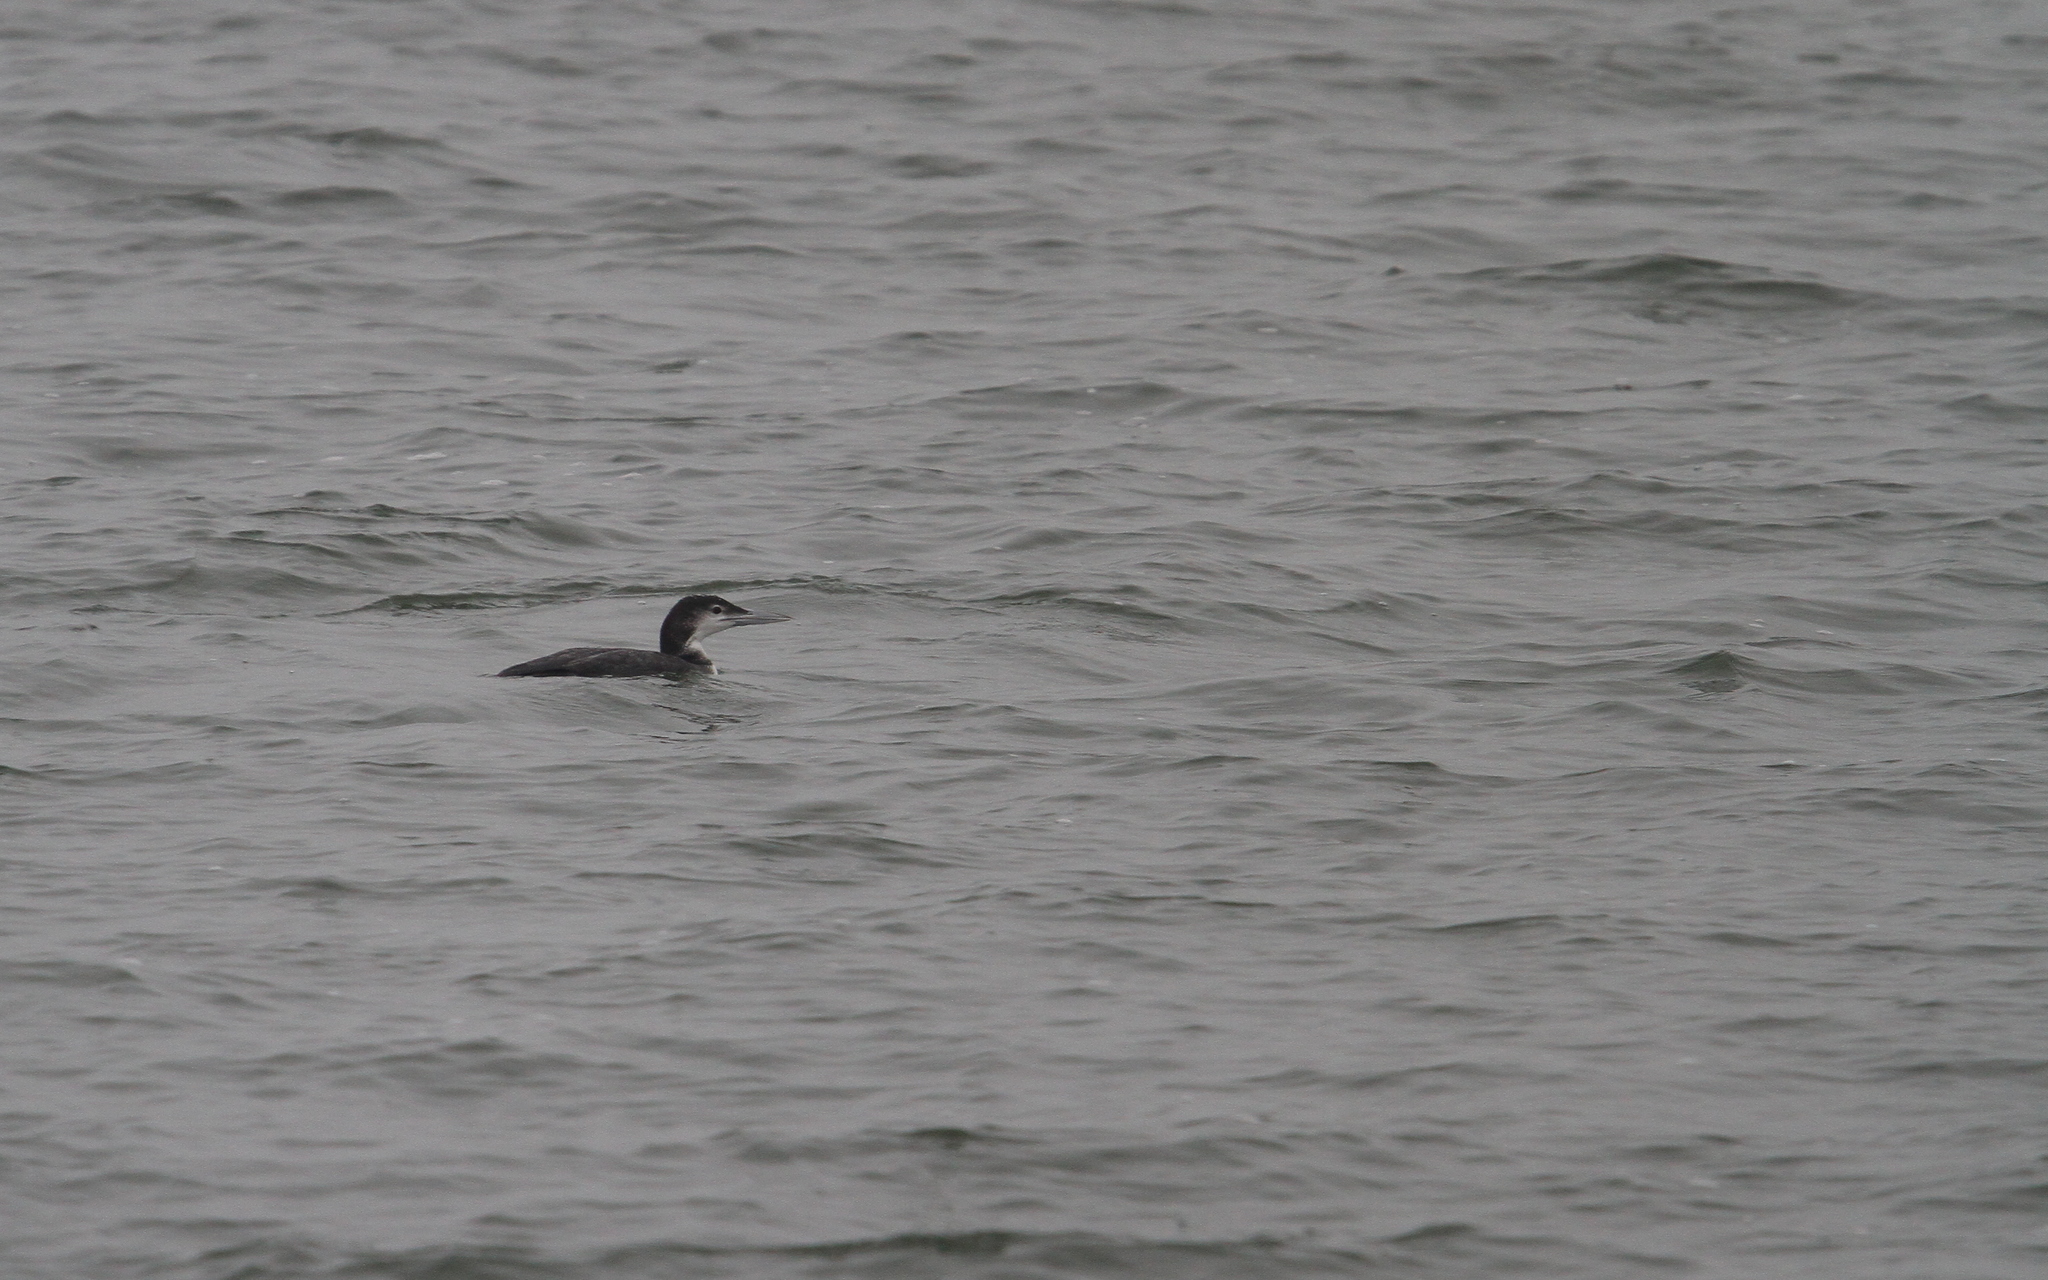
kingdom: Animalia
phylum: Chordata
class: Aves
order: Gaviiformes
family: Gaviidae
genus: Gavia
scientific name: Gavia immer
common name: Common loon
